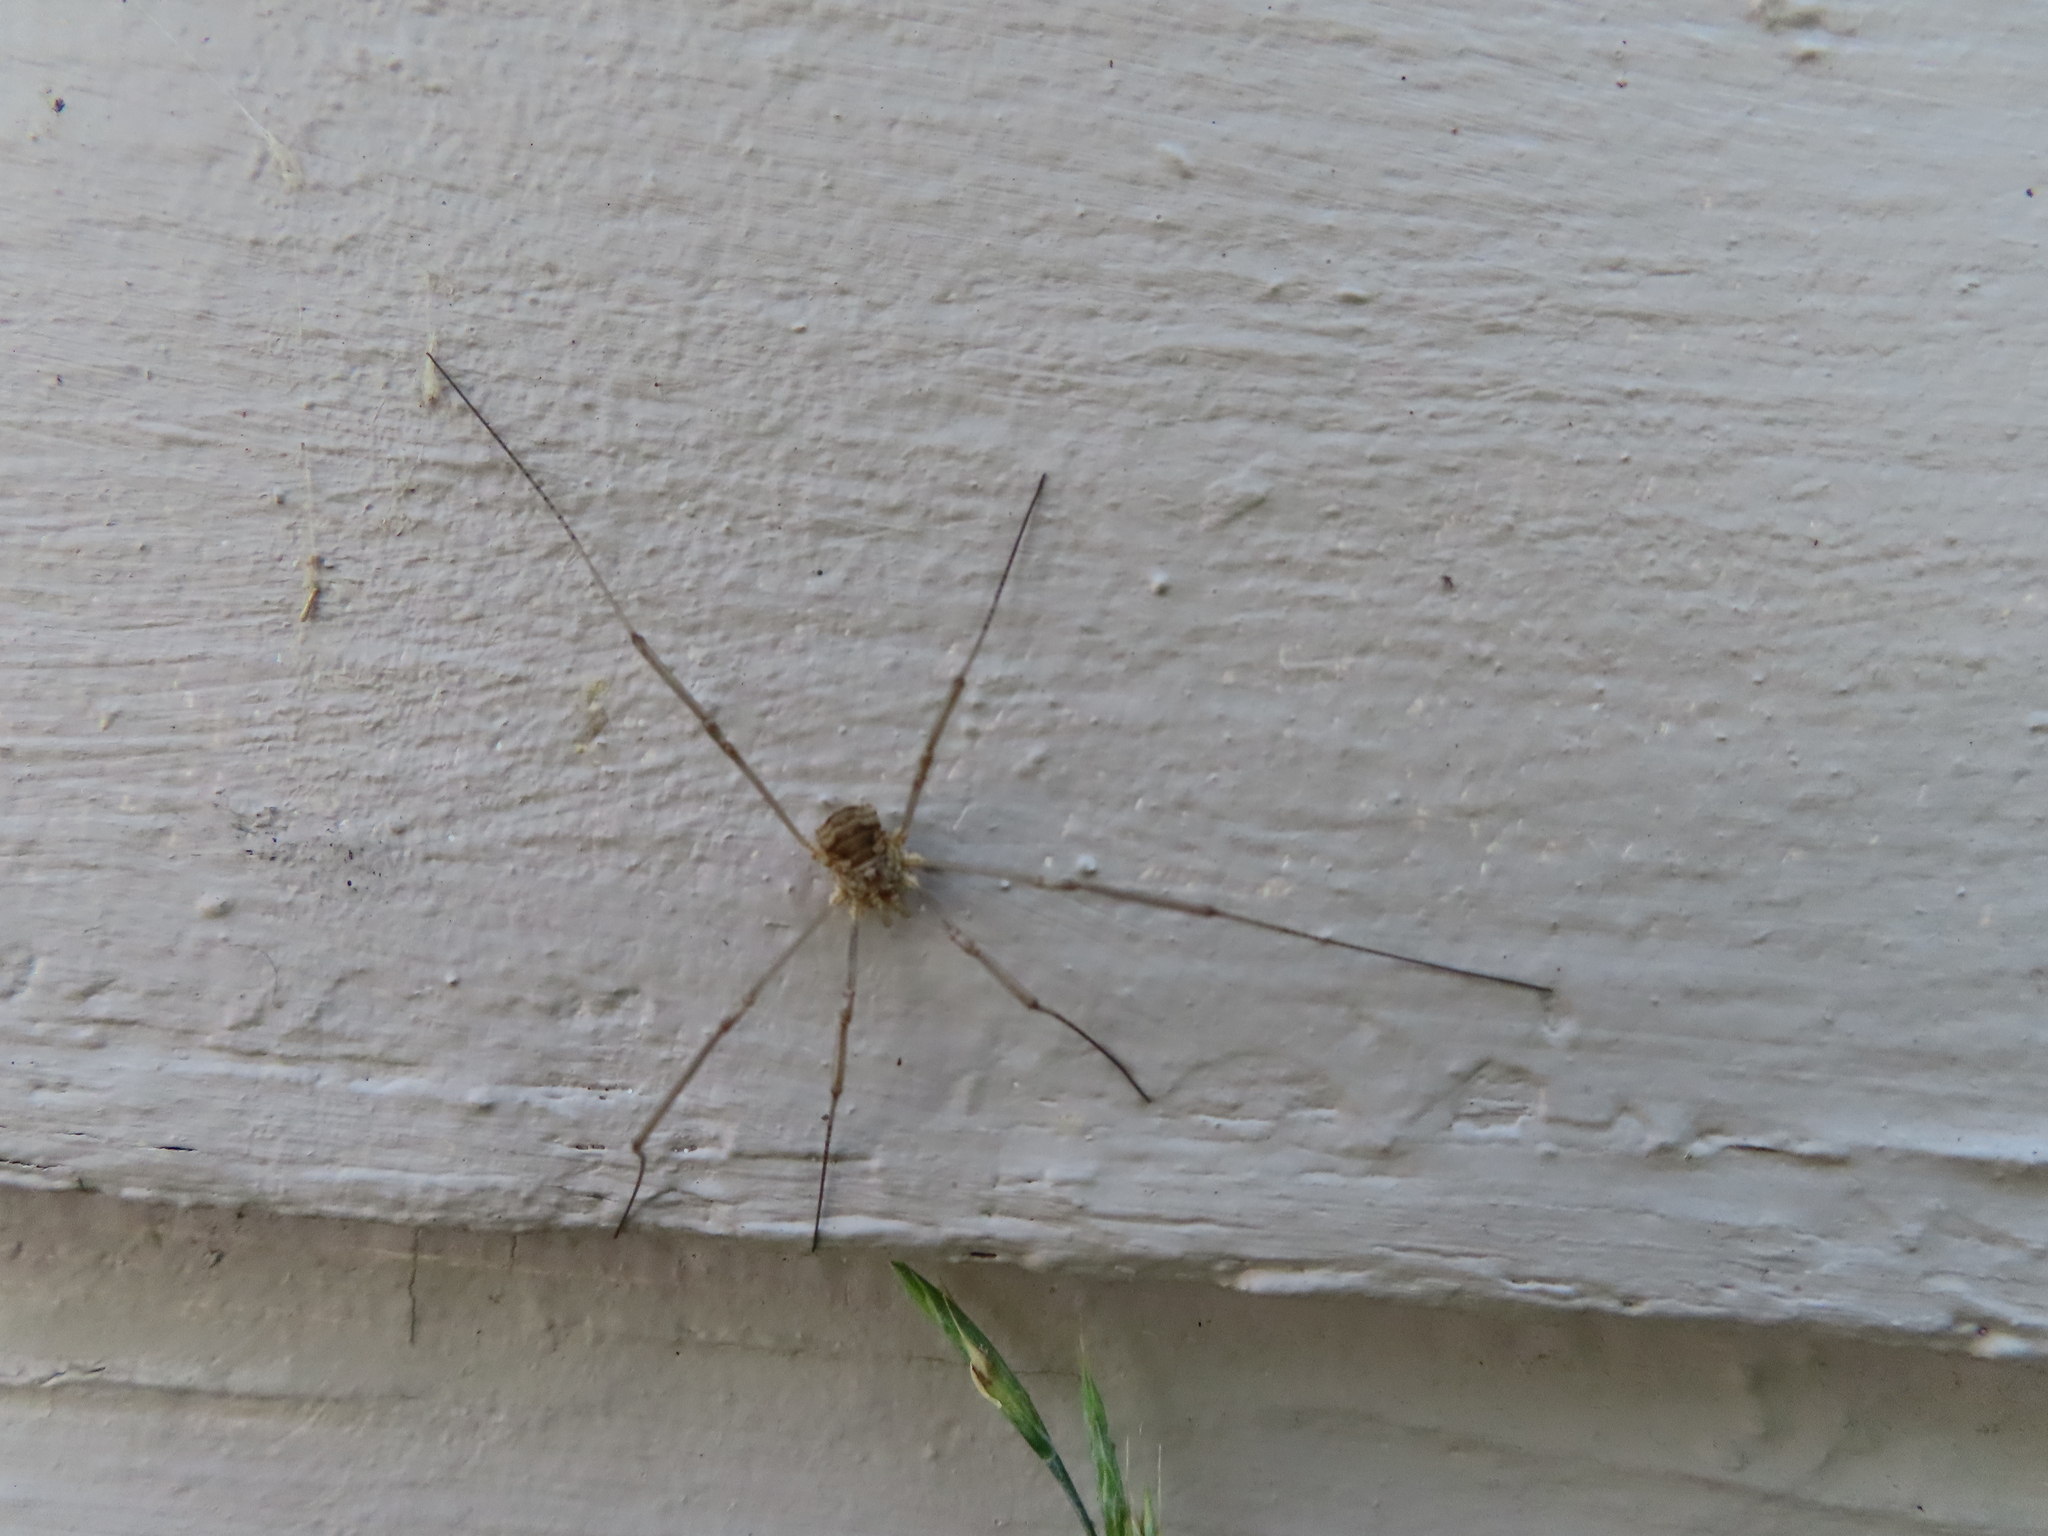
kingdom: Animalia
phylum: Arthropoda
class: Arachnida
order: Opiliones
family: Phalangiidae
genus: Phalangium
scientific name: Phalangium opilio
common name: Daddy longleg
